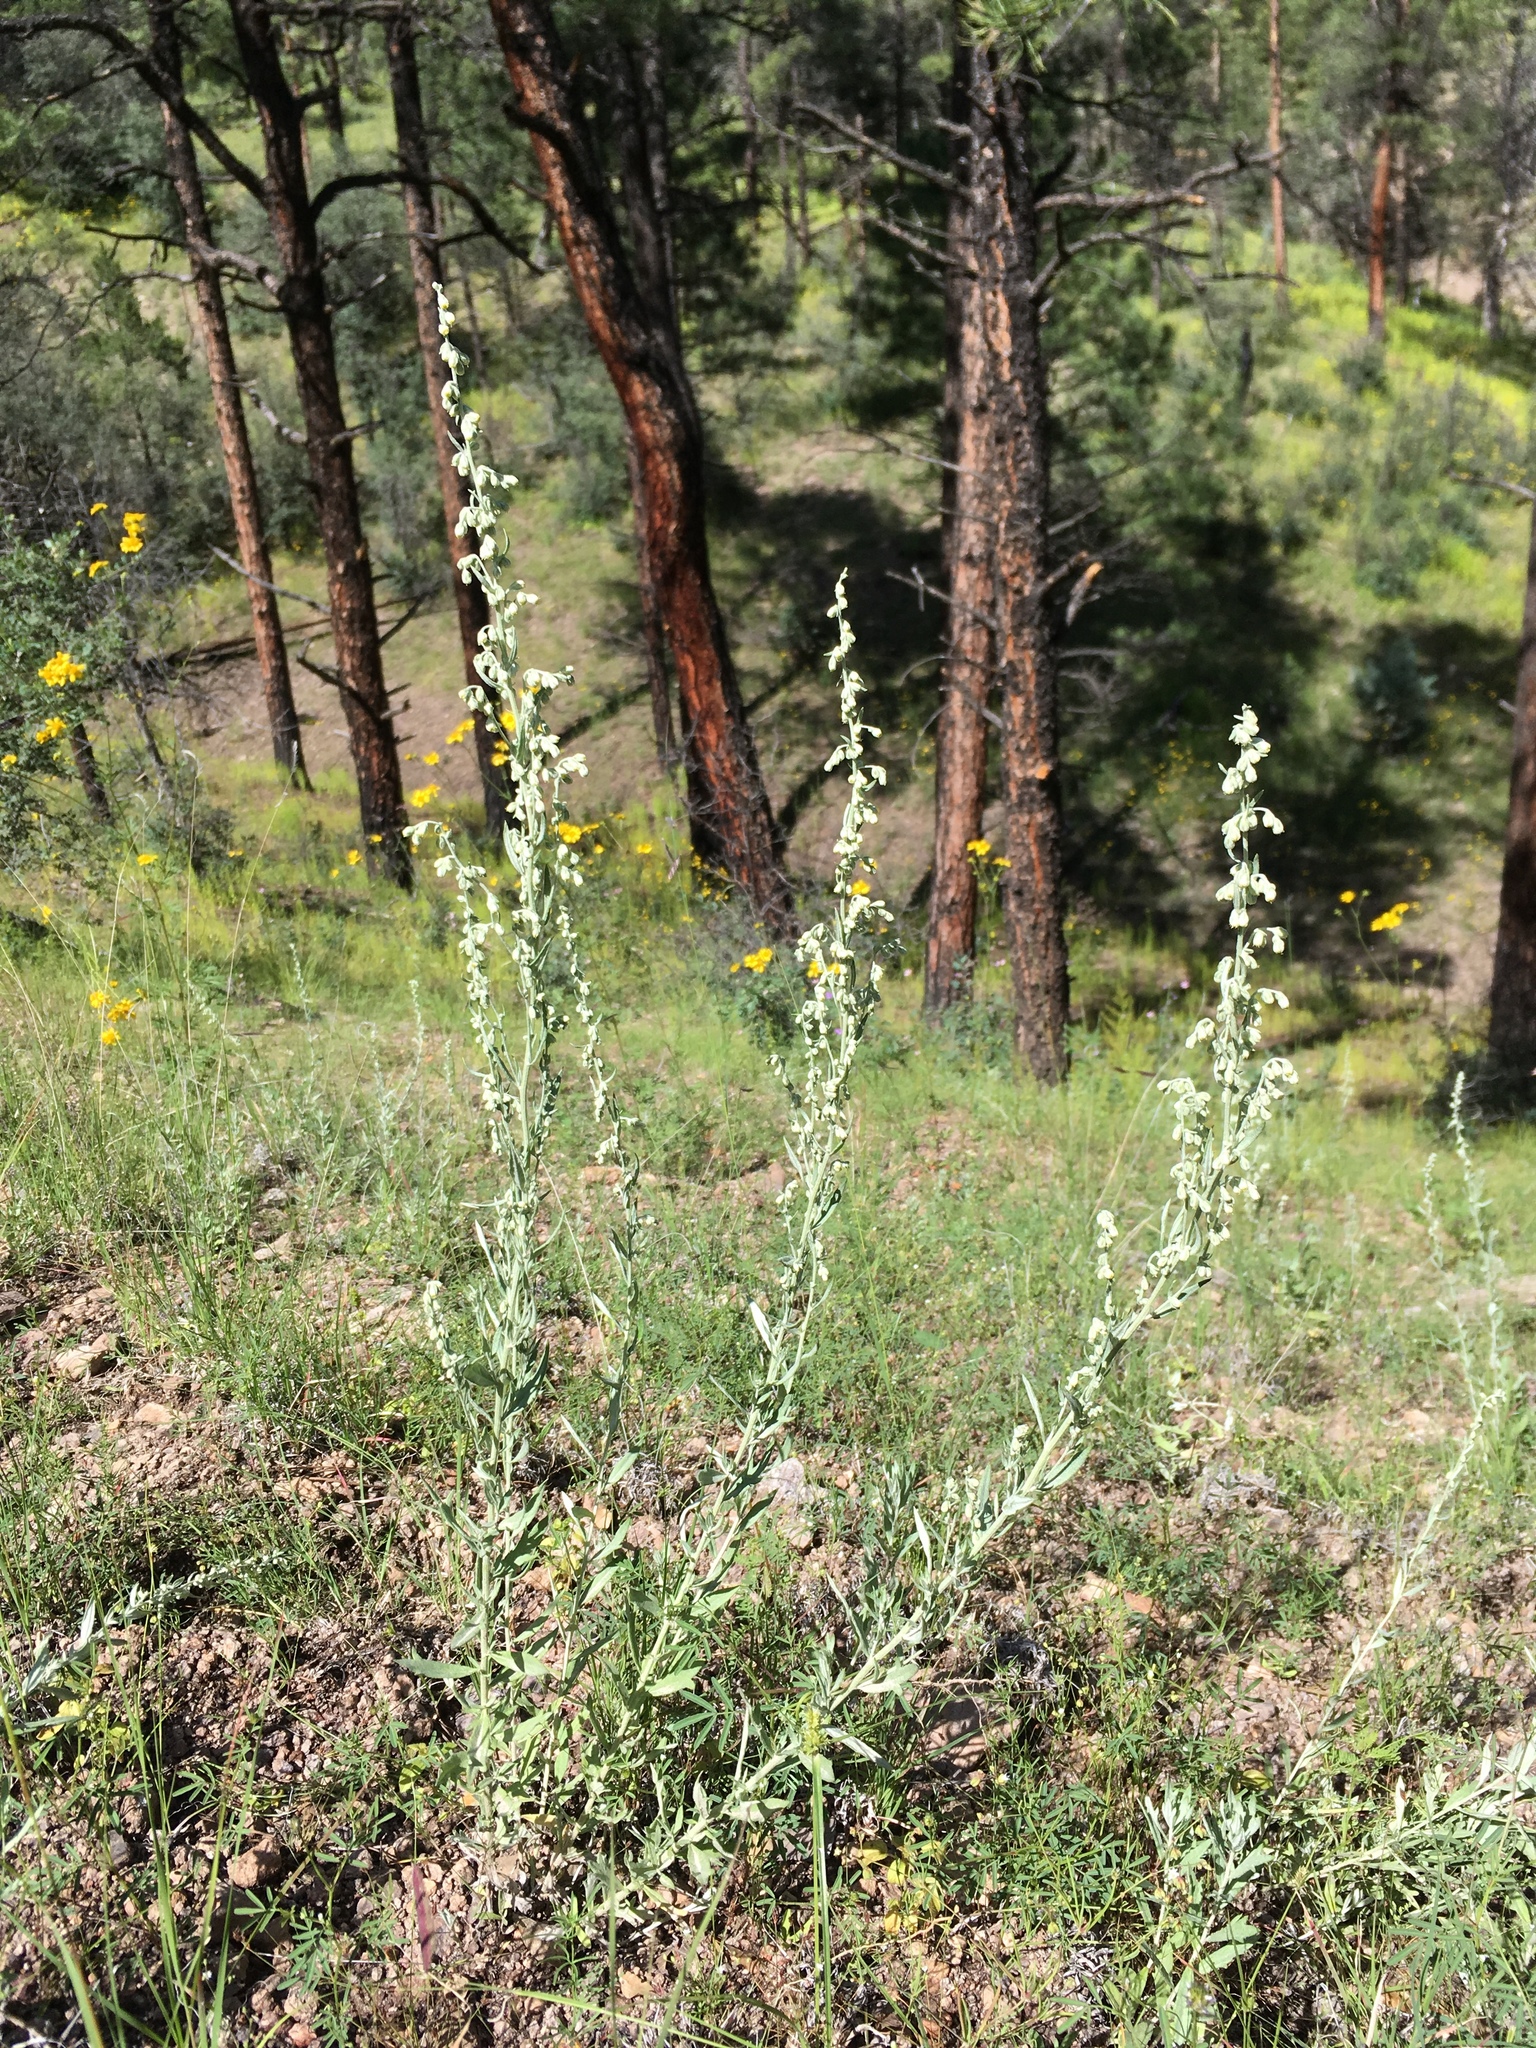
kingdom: Plantae
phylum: Tracheophyta
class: Magnoliopsida
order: Asterales
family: Asteraceae
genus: Artemisia
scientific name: Artemisia ludoviciana
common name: Western mugwort
